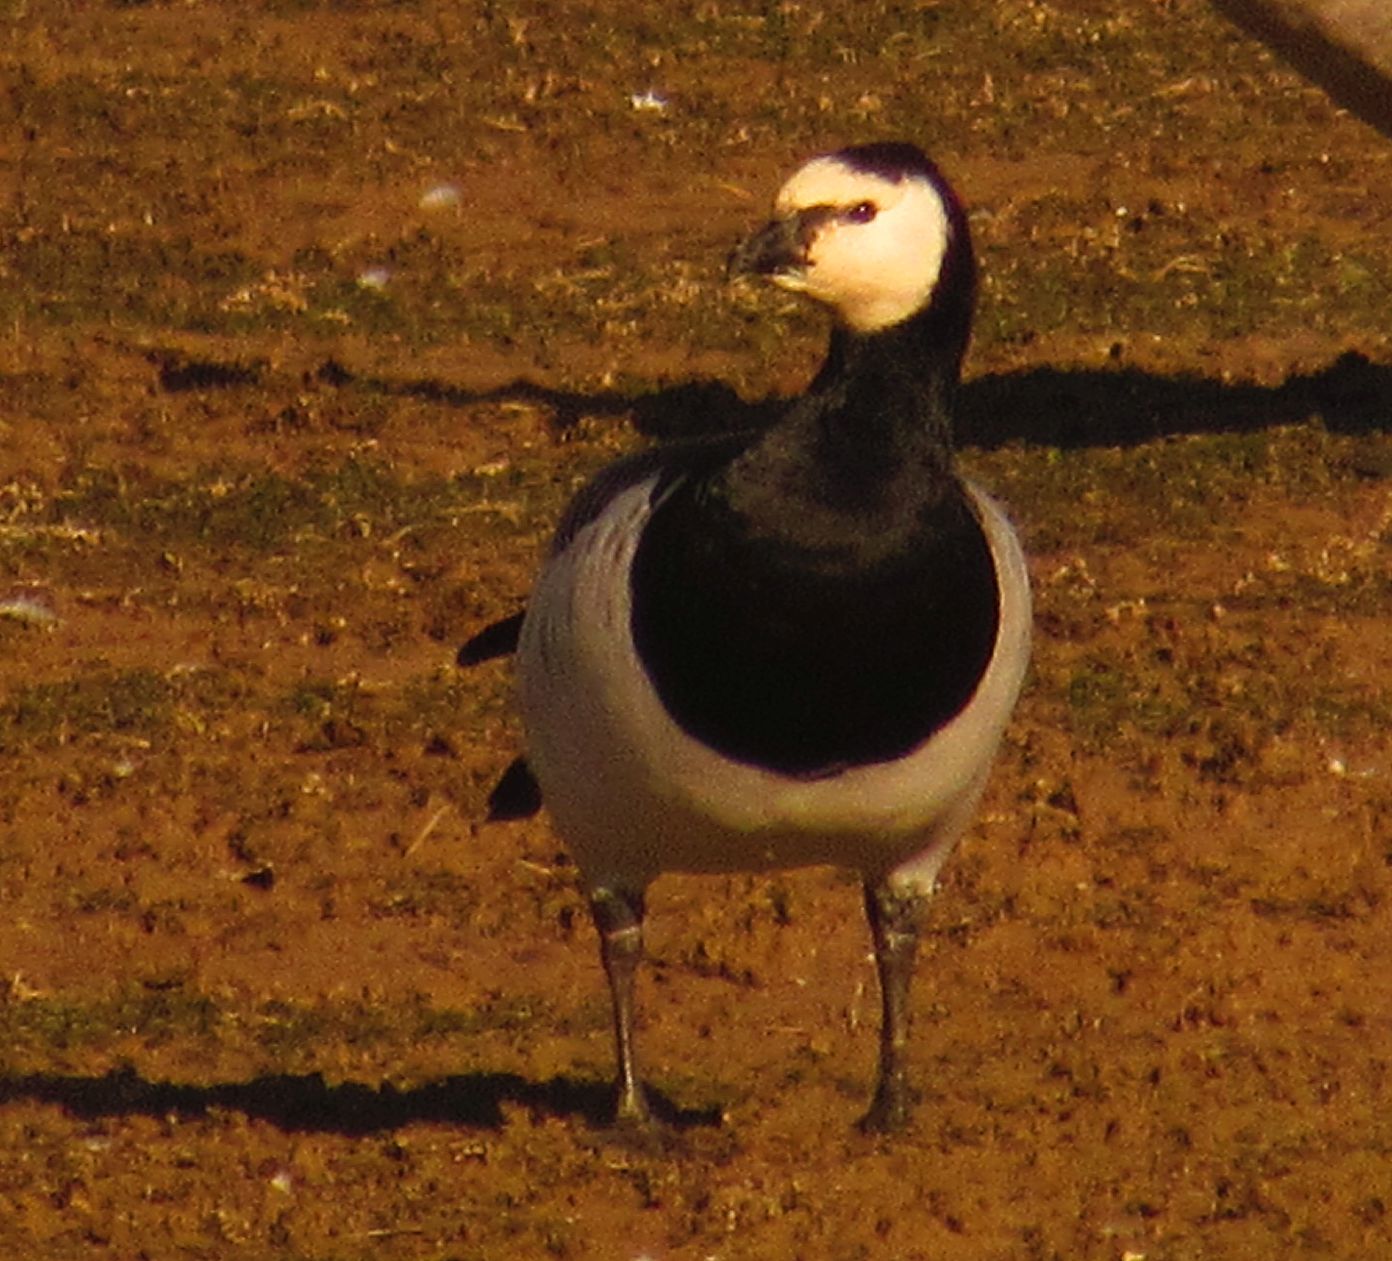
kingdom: Animalia
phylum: Chordata
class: Aves
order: Anseriformes
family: Anatidae
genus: Branta
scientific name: Branta leucopsis
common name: Barnacle goose
